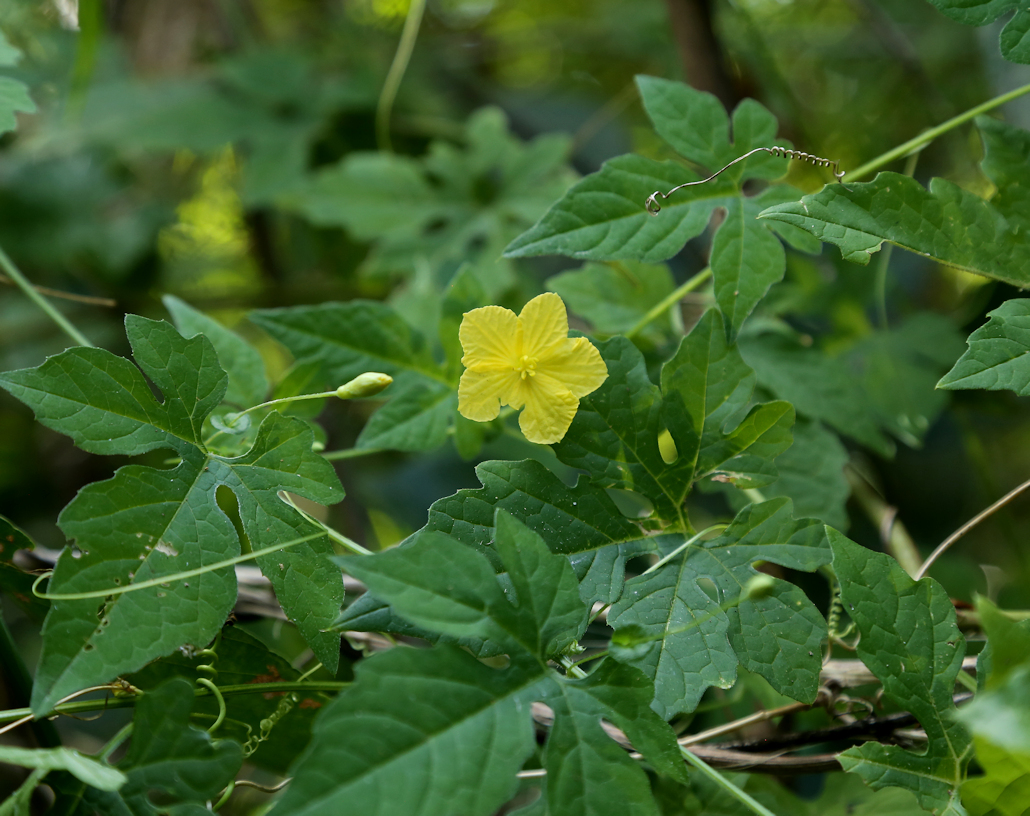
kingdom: Plantae
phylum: Tracheophyta
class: Magnoliopsida
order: Cucurbitales
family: Cucurbitaceae
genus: Momordica
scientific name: Momordica charantia
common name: Balsampear
